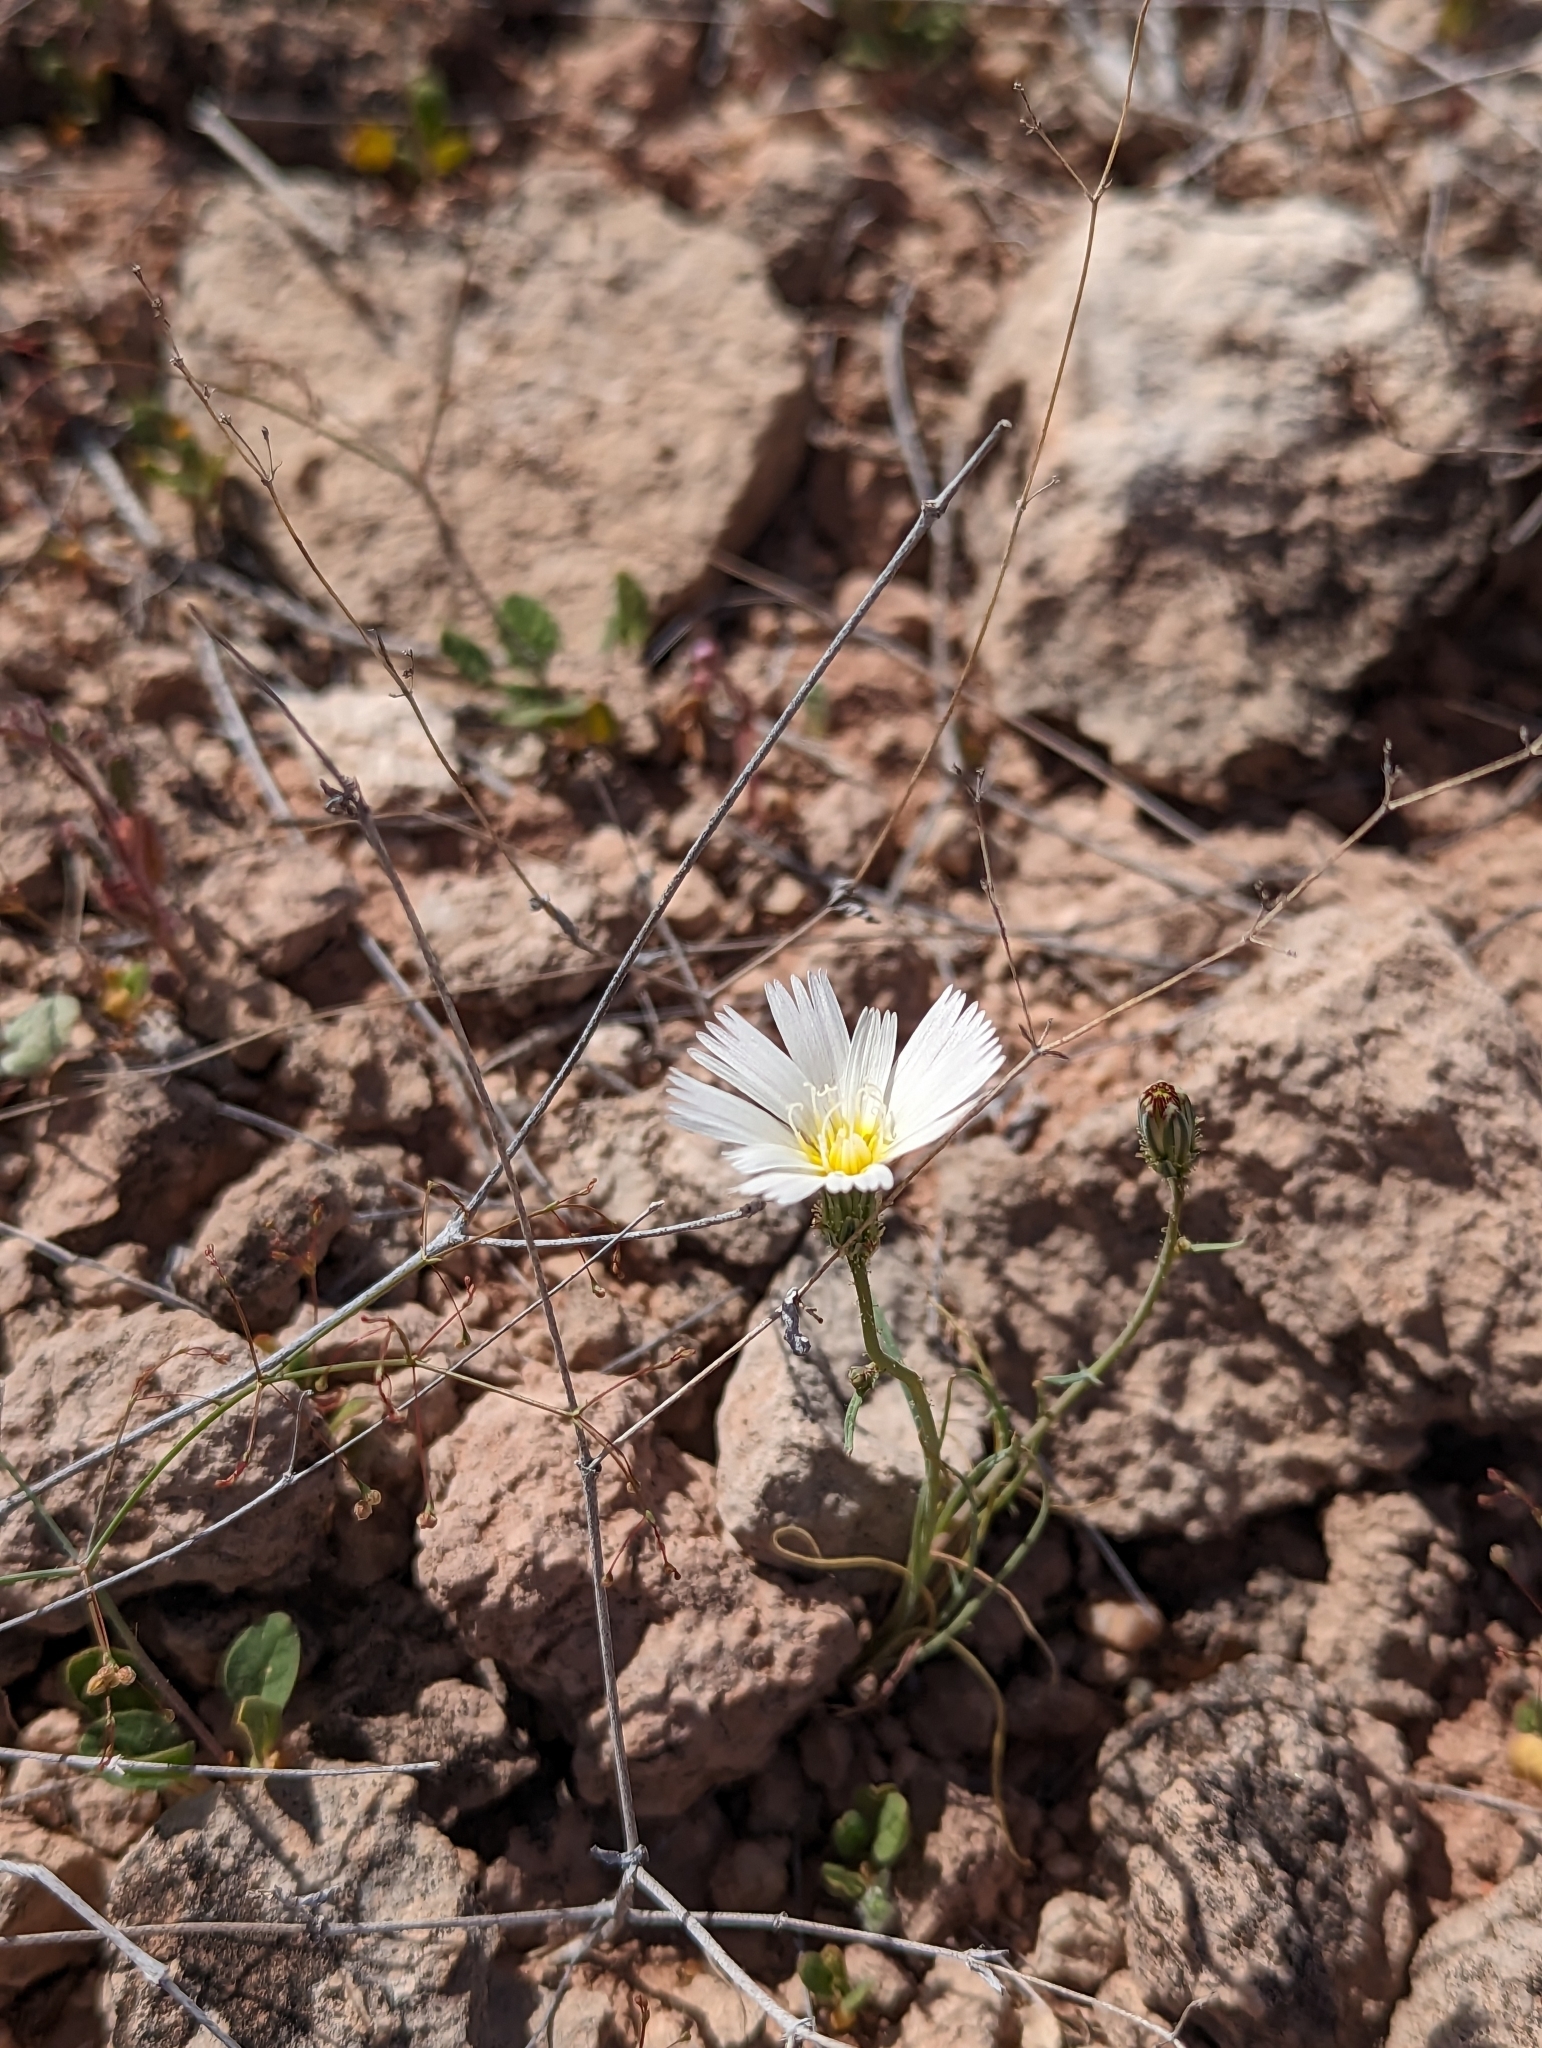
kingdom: Plantae
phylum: Tracheophyta
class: Magnoliopsida
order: Asterales
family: Asteraceae
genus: Calycoseris
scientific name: Calycoseris wrightii
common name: White tackstem
